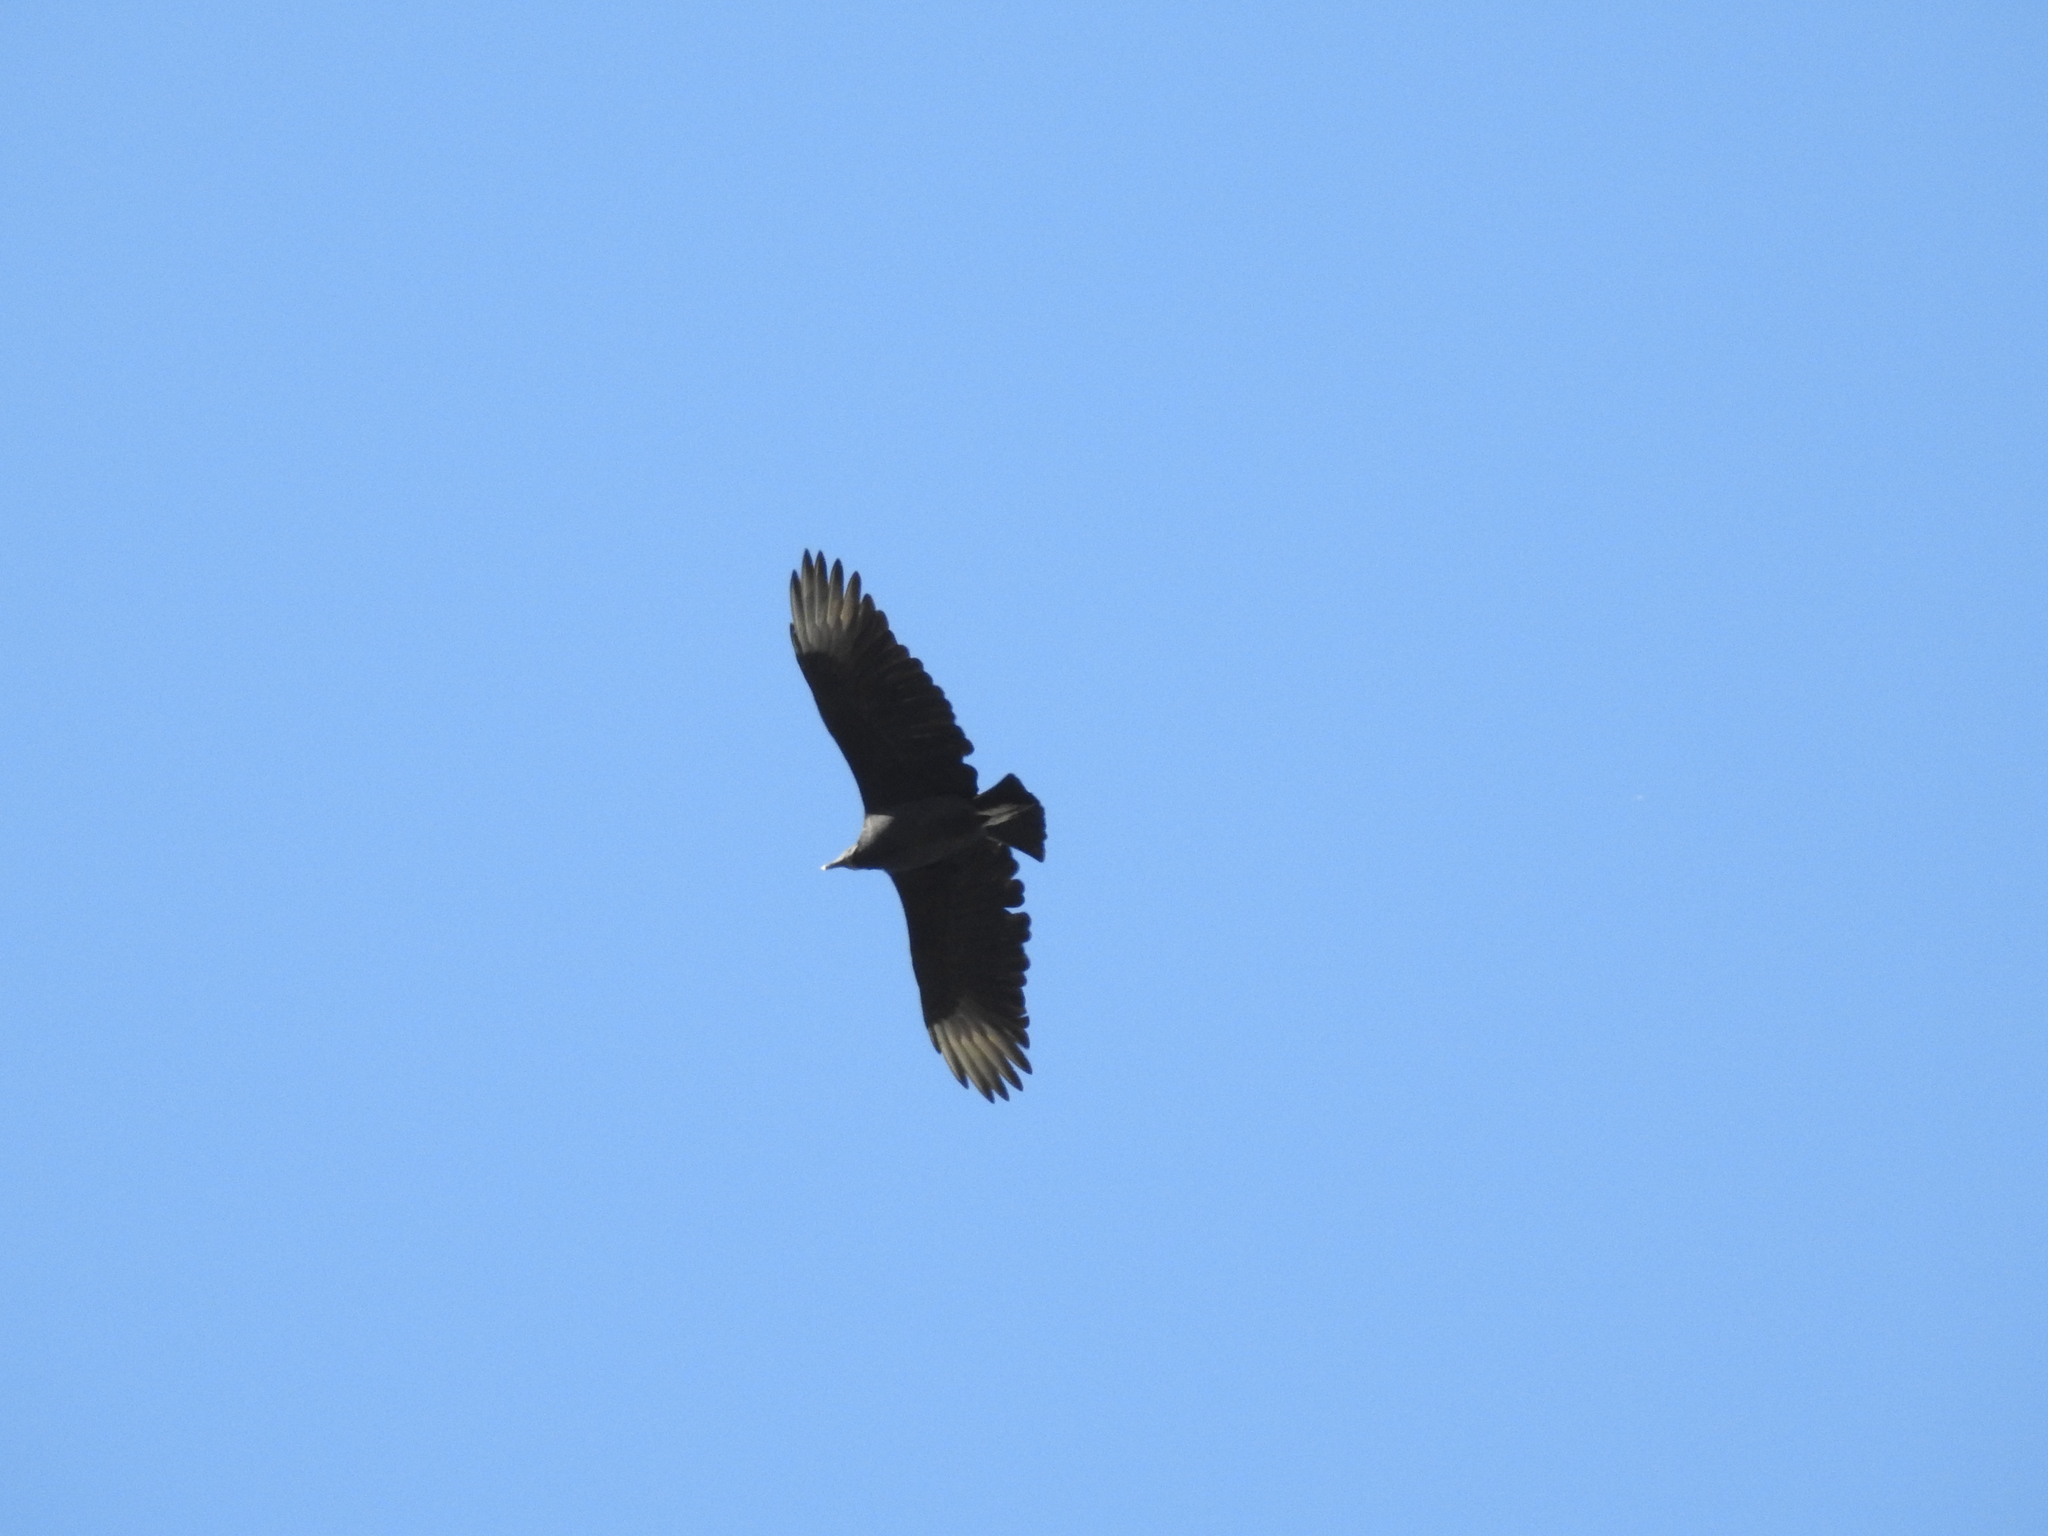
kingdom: Animalia
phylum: Chordata
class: Aves
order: Accipitriformes
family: Cathartidae
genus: Coragyps
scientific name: Coragyps atratus
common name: Black vulture
